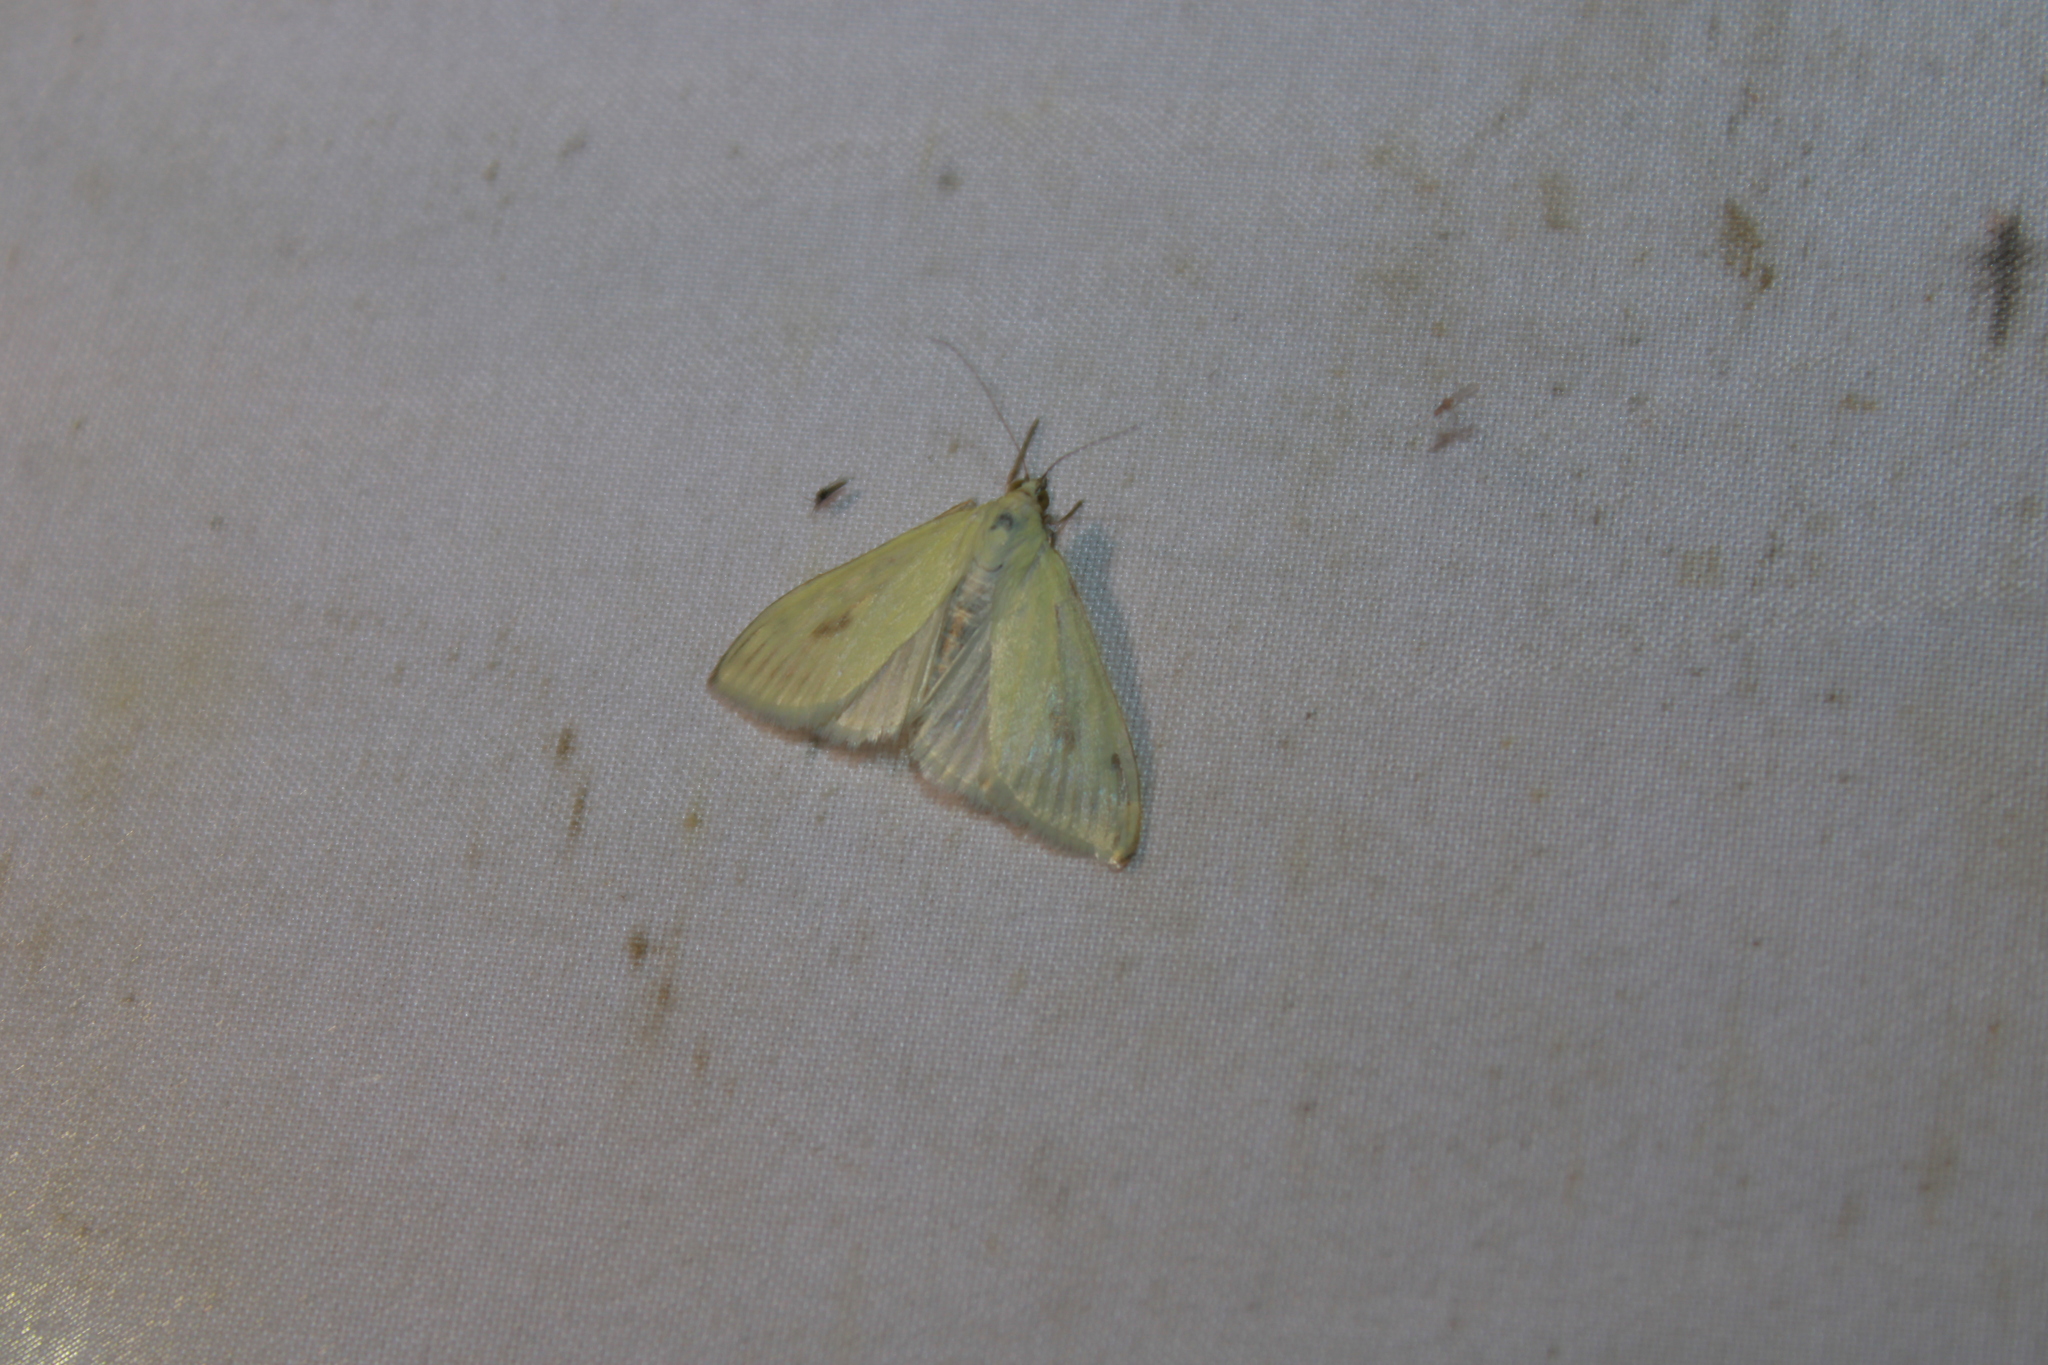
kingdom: Animalia
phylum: Arthropoda
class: Insecta
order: Lepidoptera
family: Crambidae
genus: Sitochroa
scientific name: Sitochroa palealis
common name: Greenish-yellow sitochroa moth
